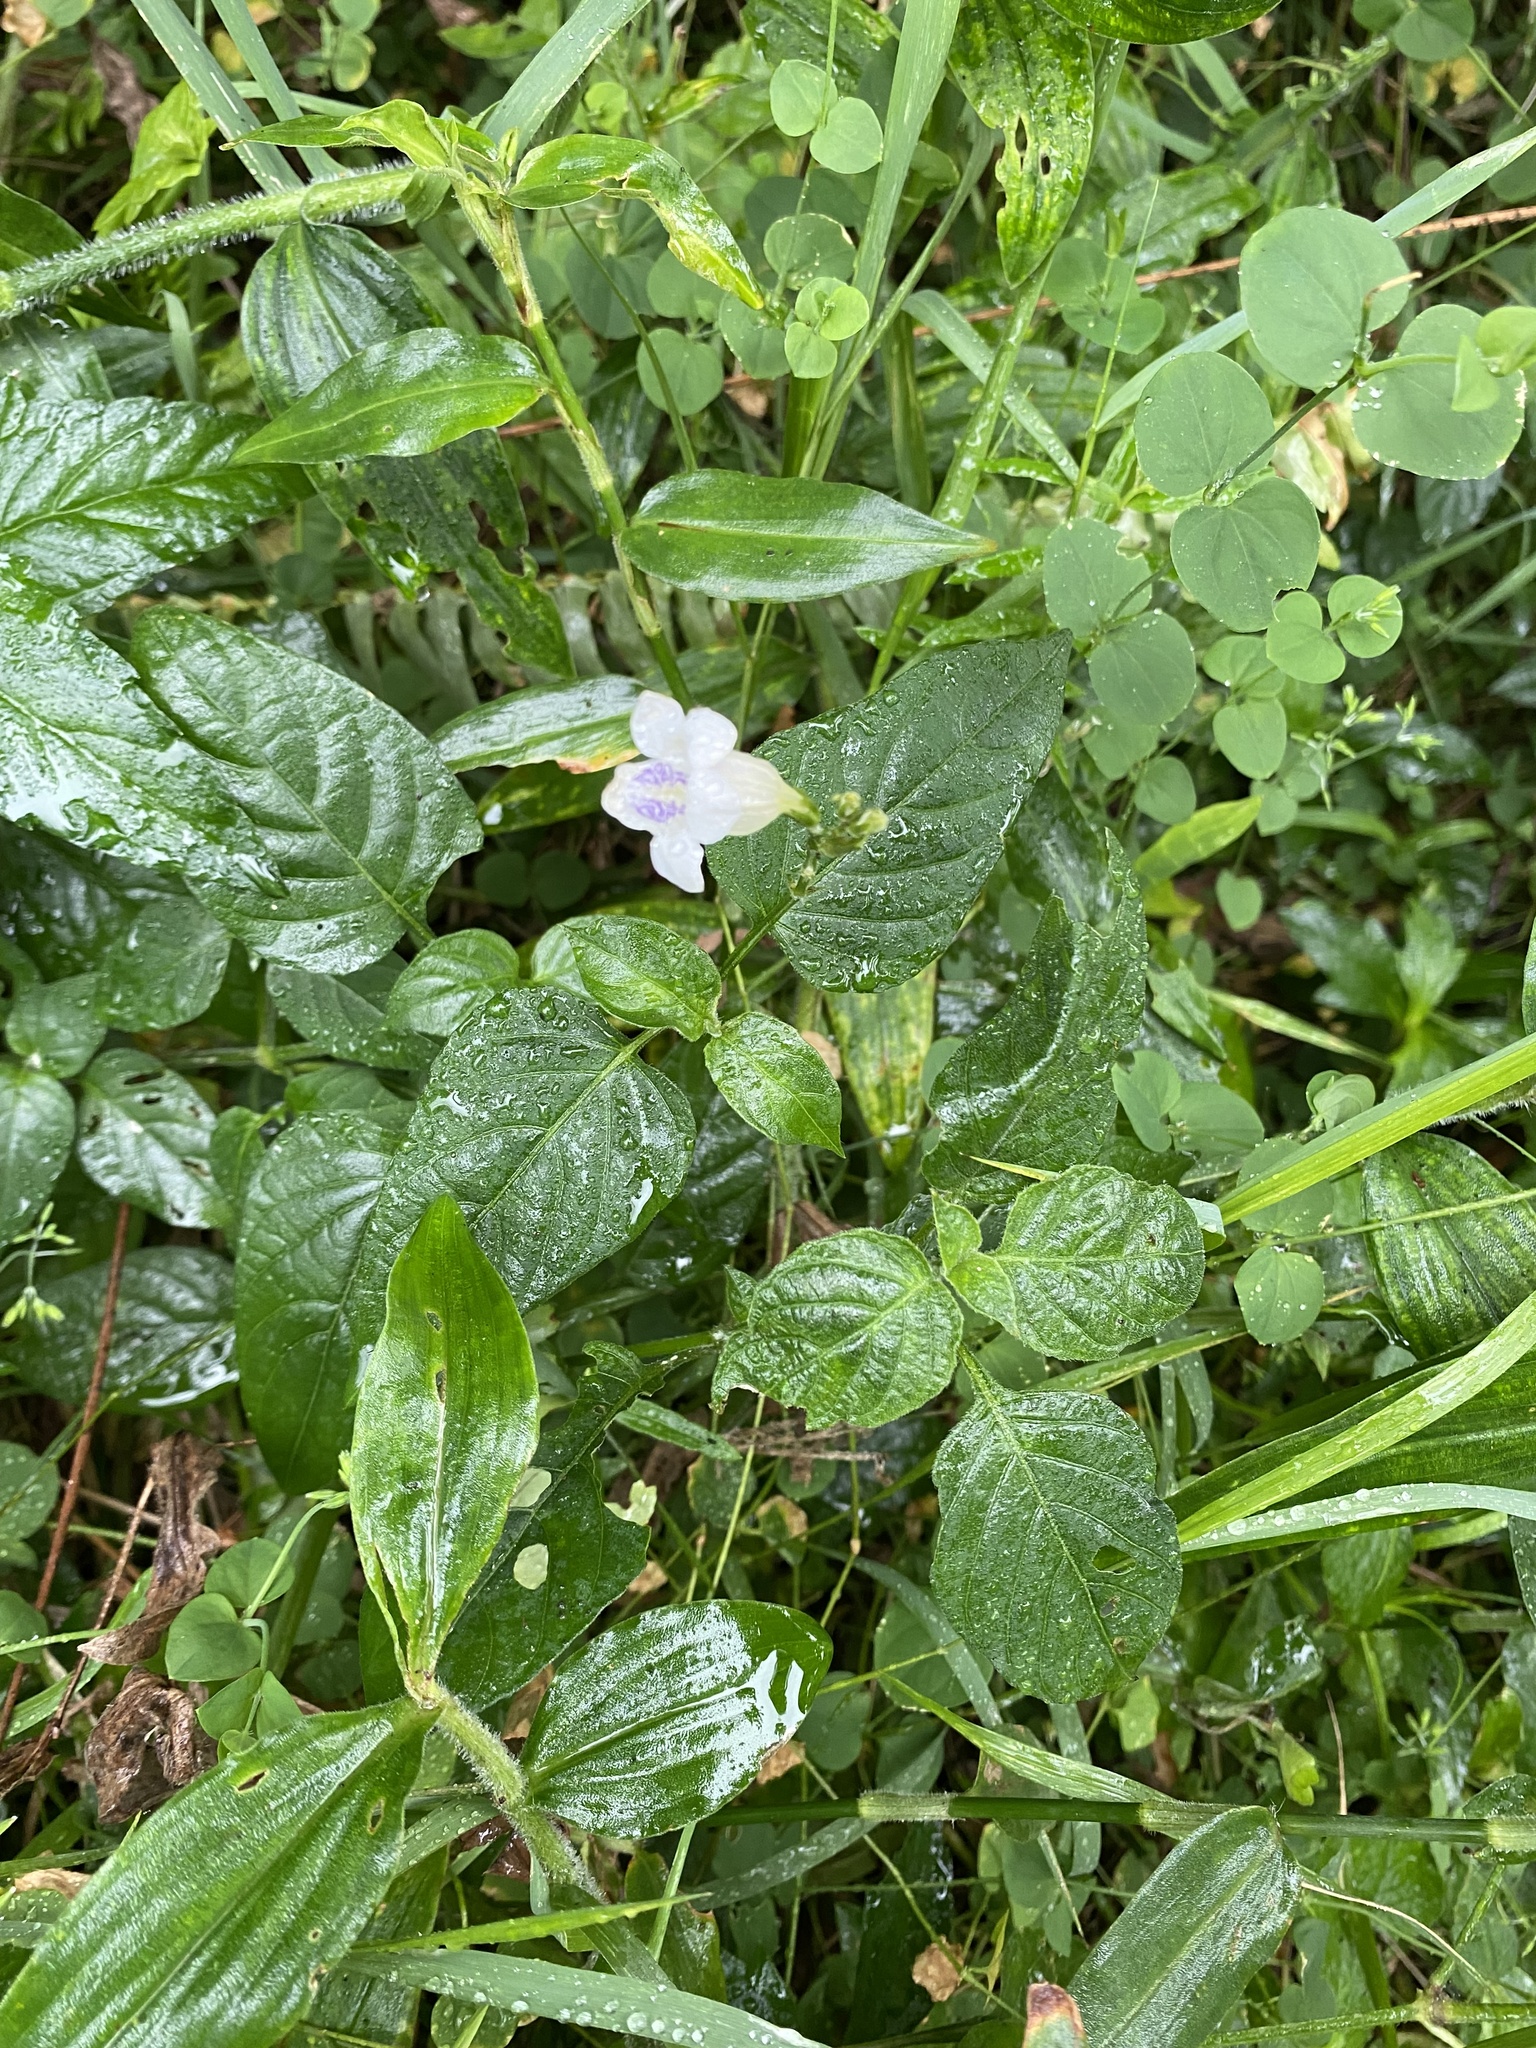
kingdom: Plantae
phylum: Tracheophyta
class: Magnoliopsida
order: Lamiales
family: Acanthaceae
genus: Asystasia
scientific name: Asystasia intrusa
